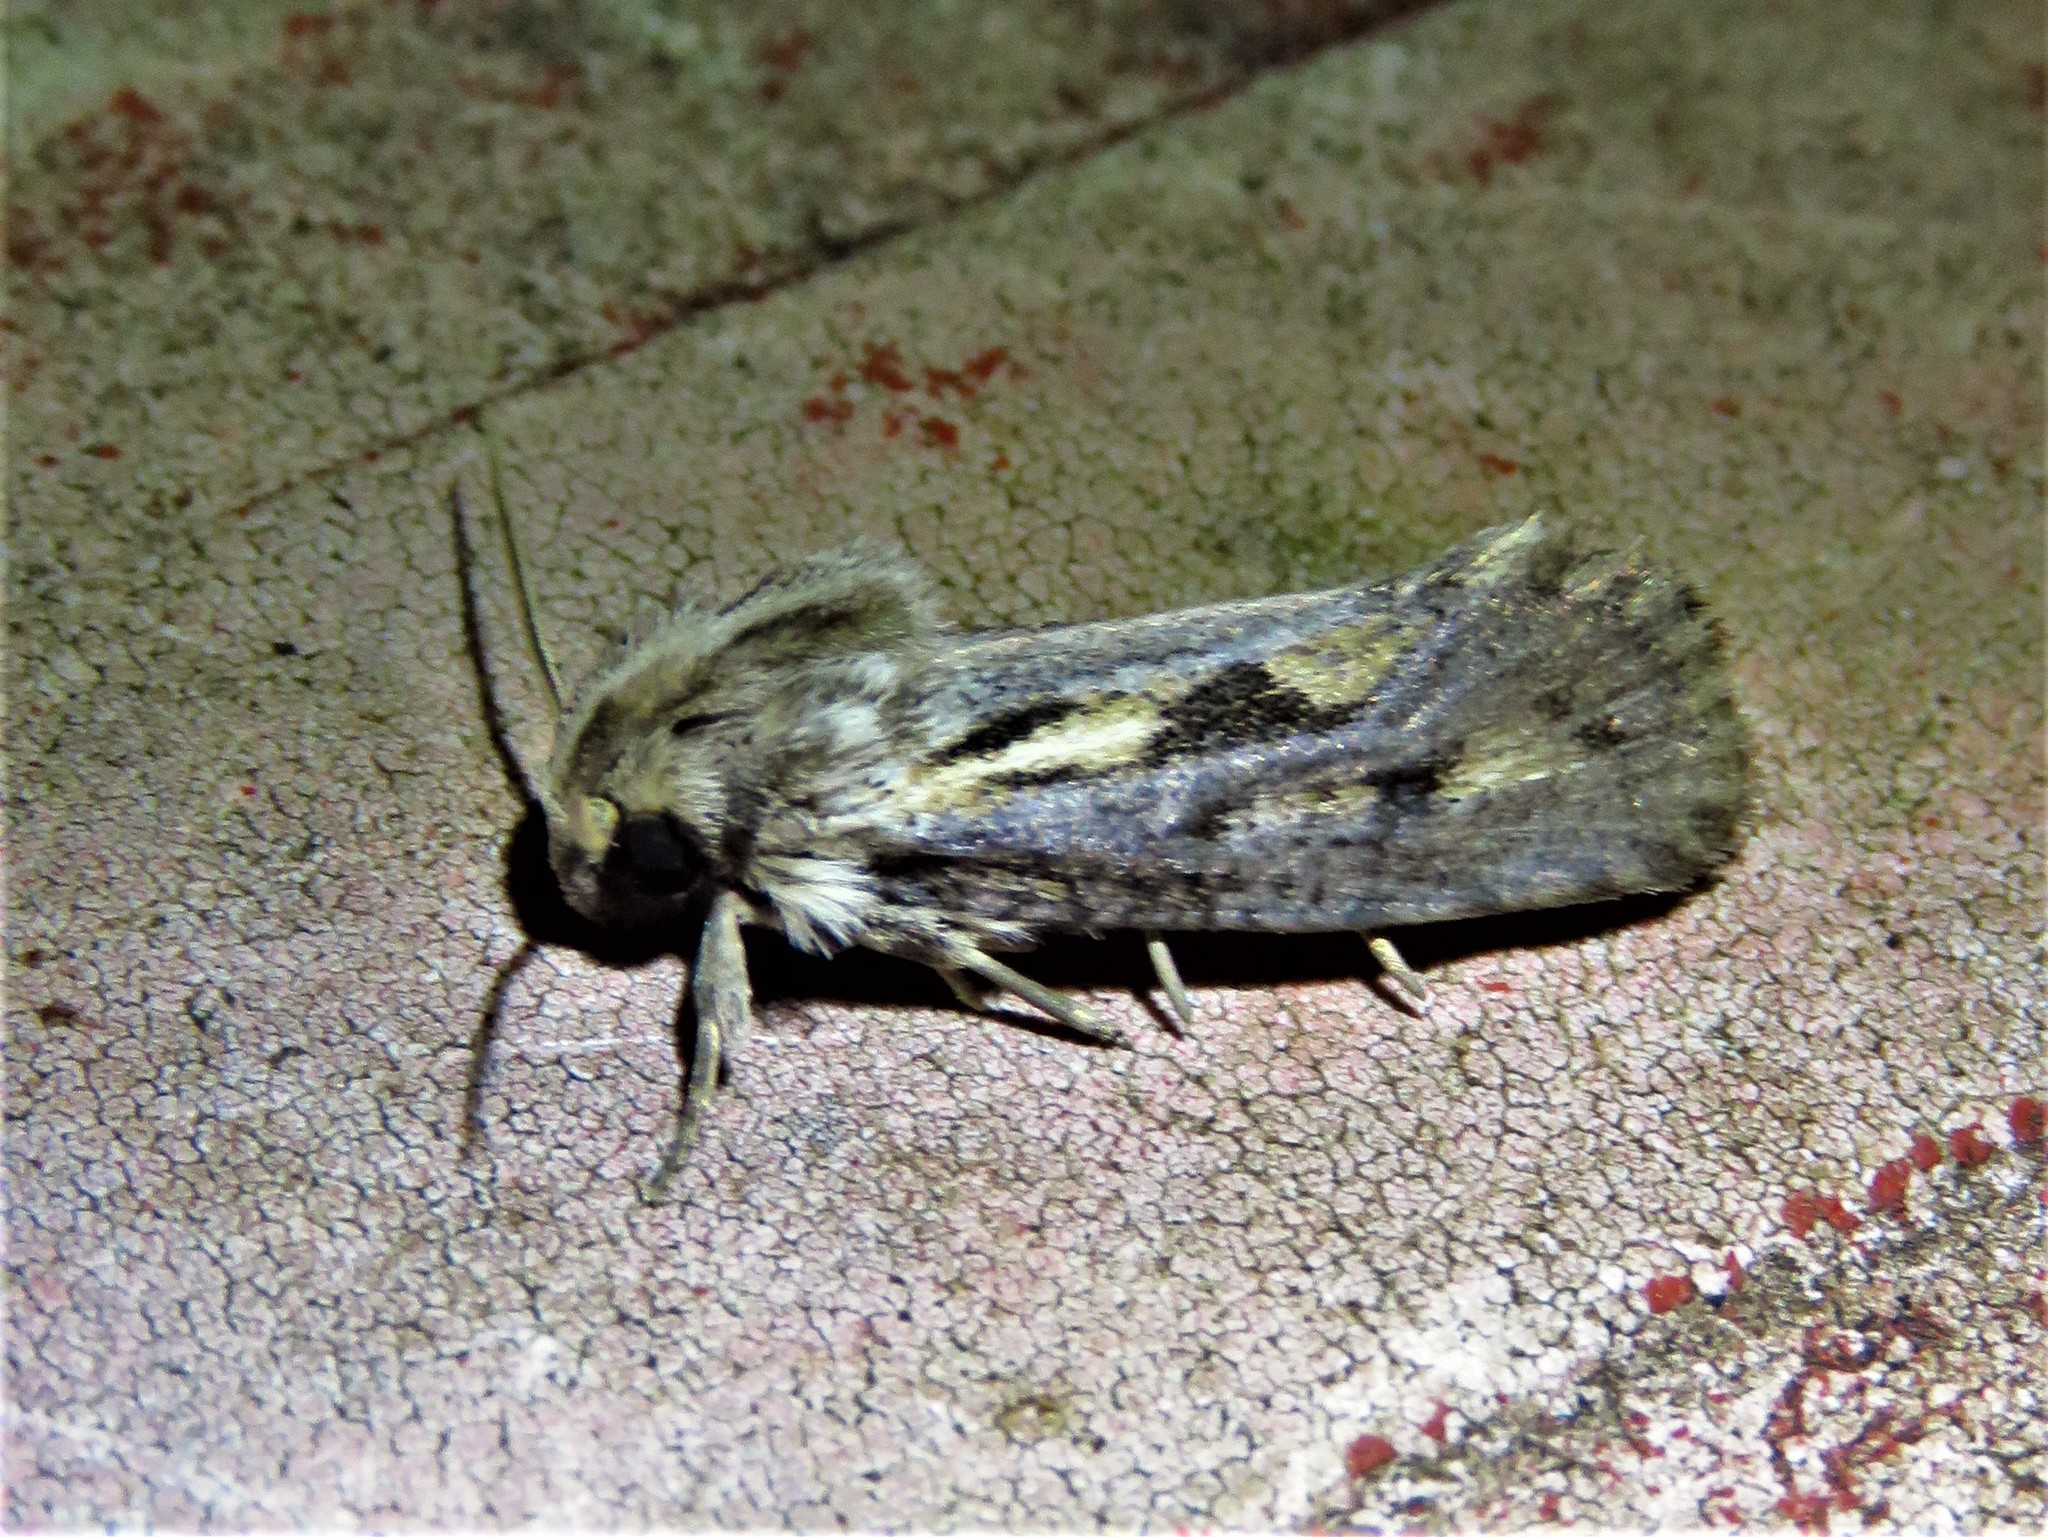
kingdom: Animalia
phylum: Arthropoda
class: Insecta
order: Lepidoptera
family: Tineidae
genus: Acrolophus
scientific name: Acrolophus popeanella
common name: Clemens' grass tubeworm moth
